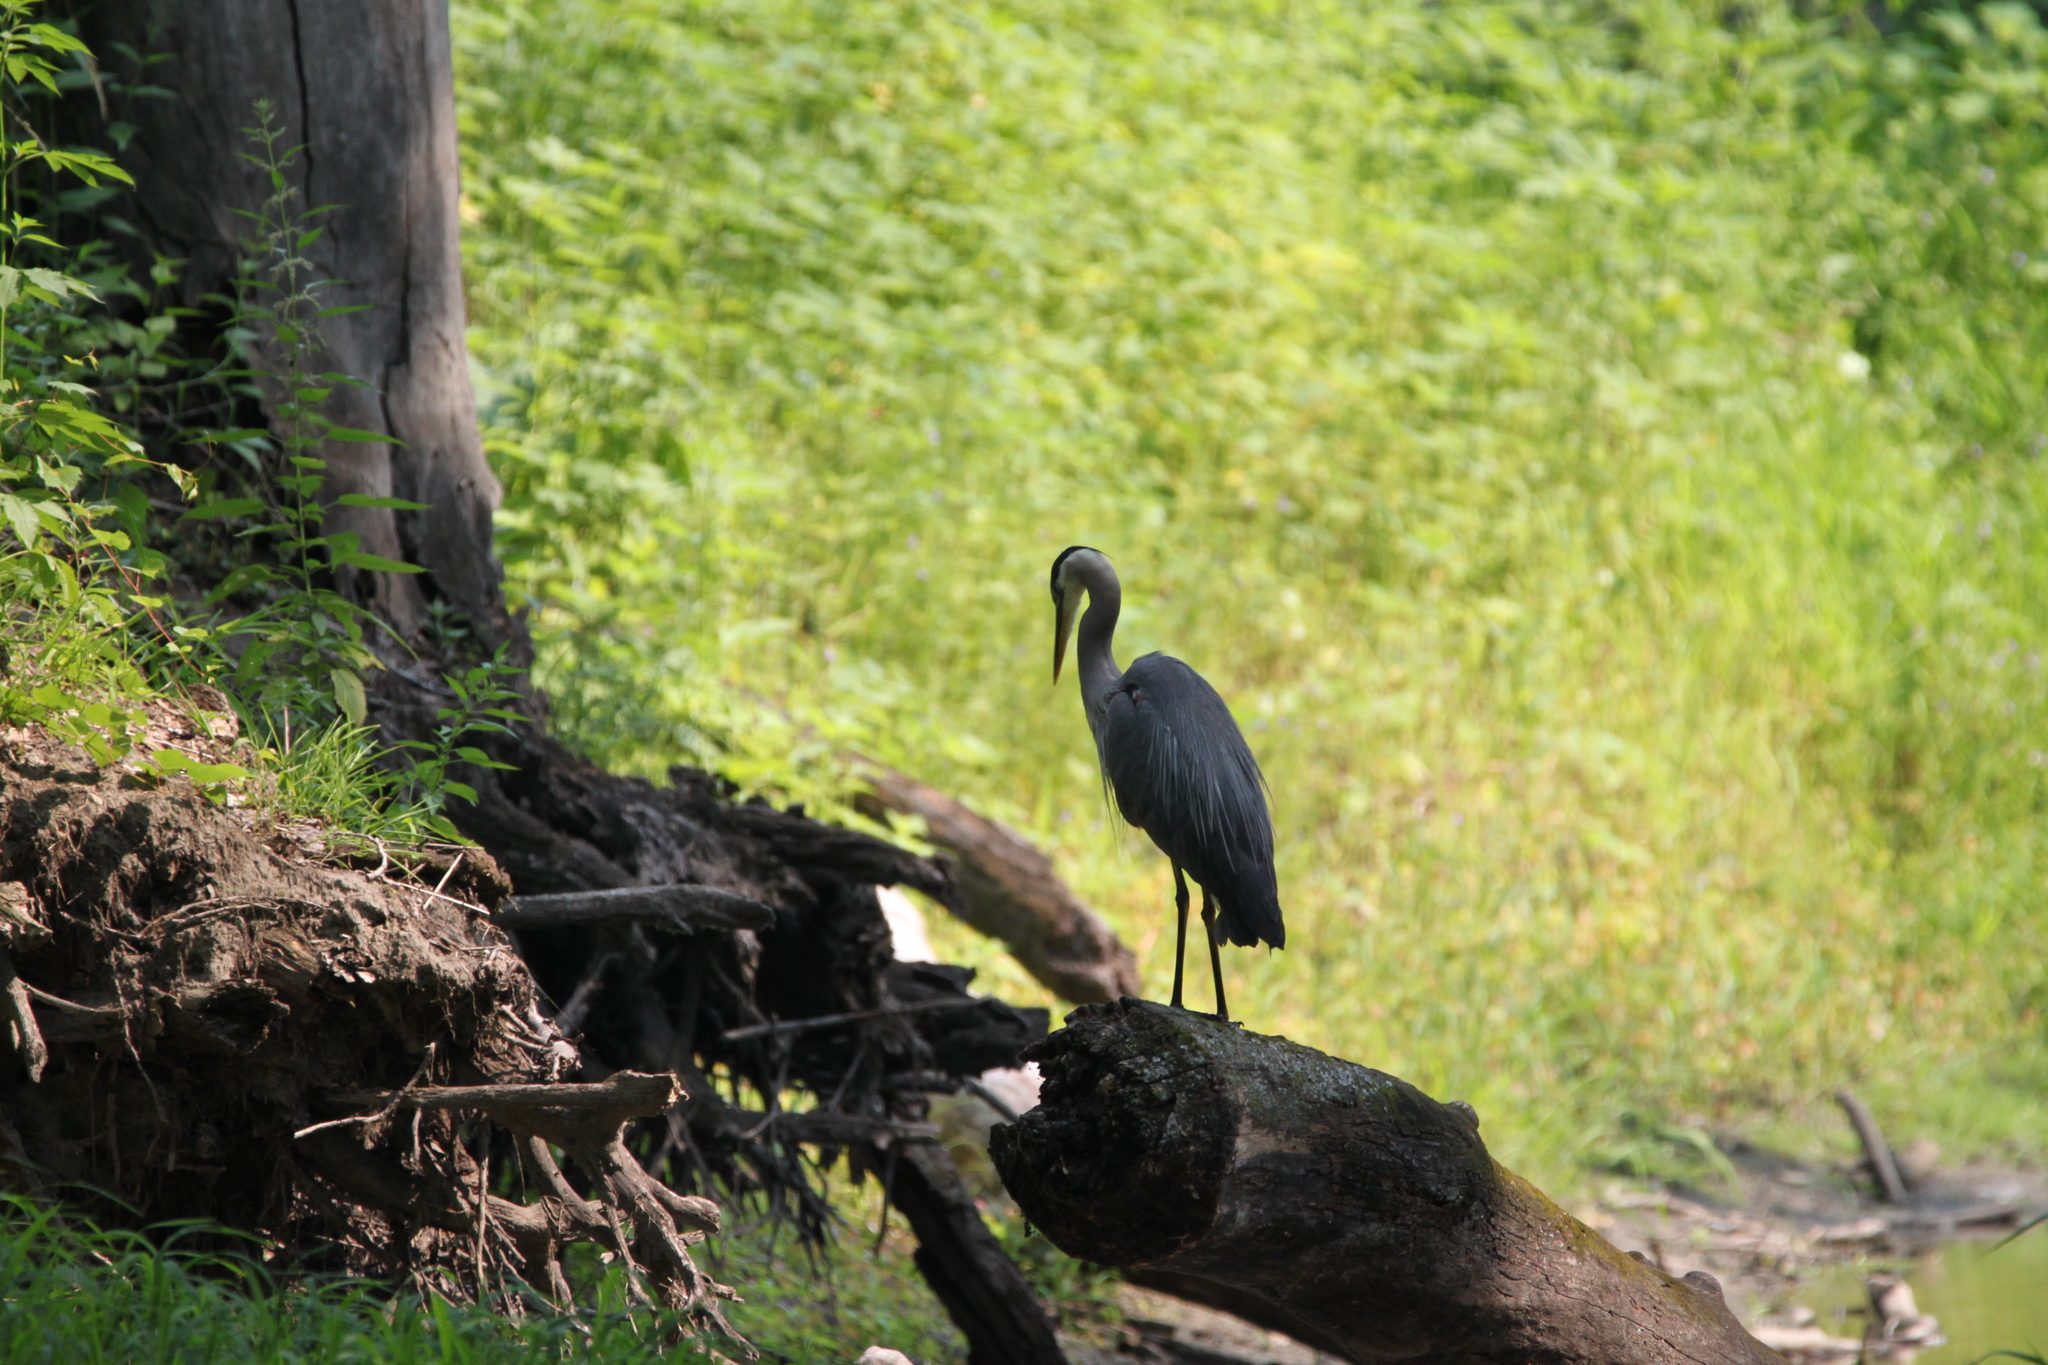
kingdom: Animalia
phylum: Chordata
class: Aves
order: Pelecaniformes
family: Ardeidae
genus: Ardea
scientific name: Ardea herodias
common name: Great blue heron
